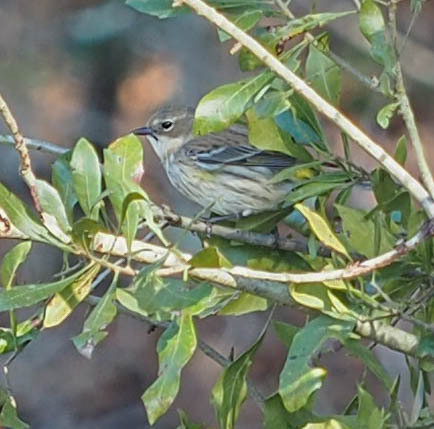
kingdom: Animalia
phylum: Chordata
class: Aves
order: Passeriformes
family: Parulidae
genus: Setophaga
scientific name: Setophaga coronata
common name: Myrtle warbler
